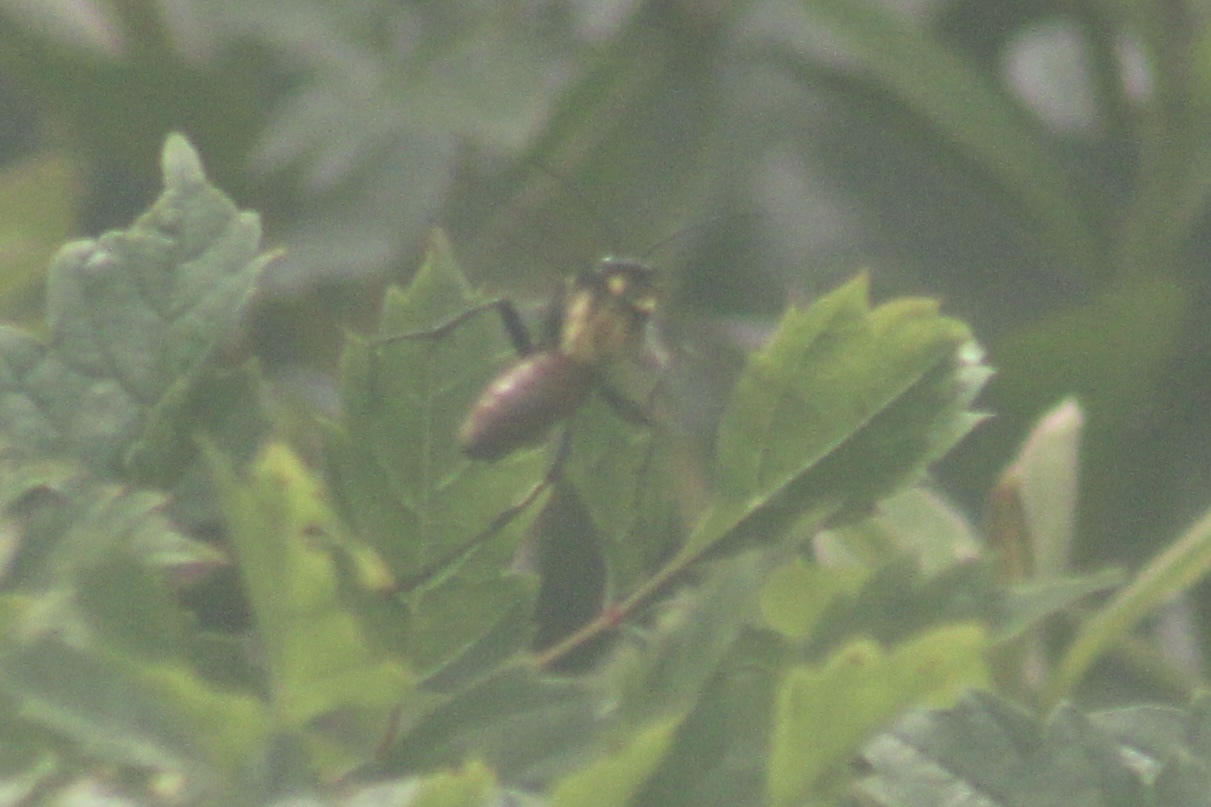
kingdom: Animalia
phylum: Arthropoda
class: Insecta
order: Hymenoptera
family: Sphecidae
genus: Sphex
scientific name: Sphex habenus
